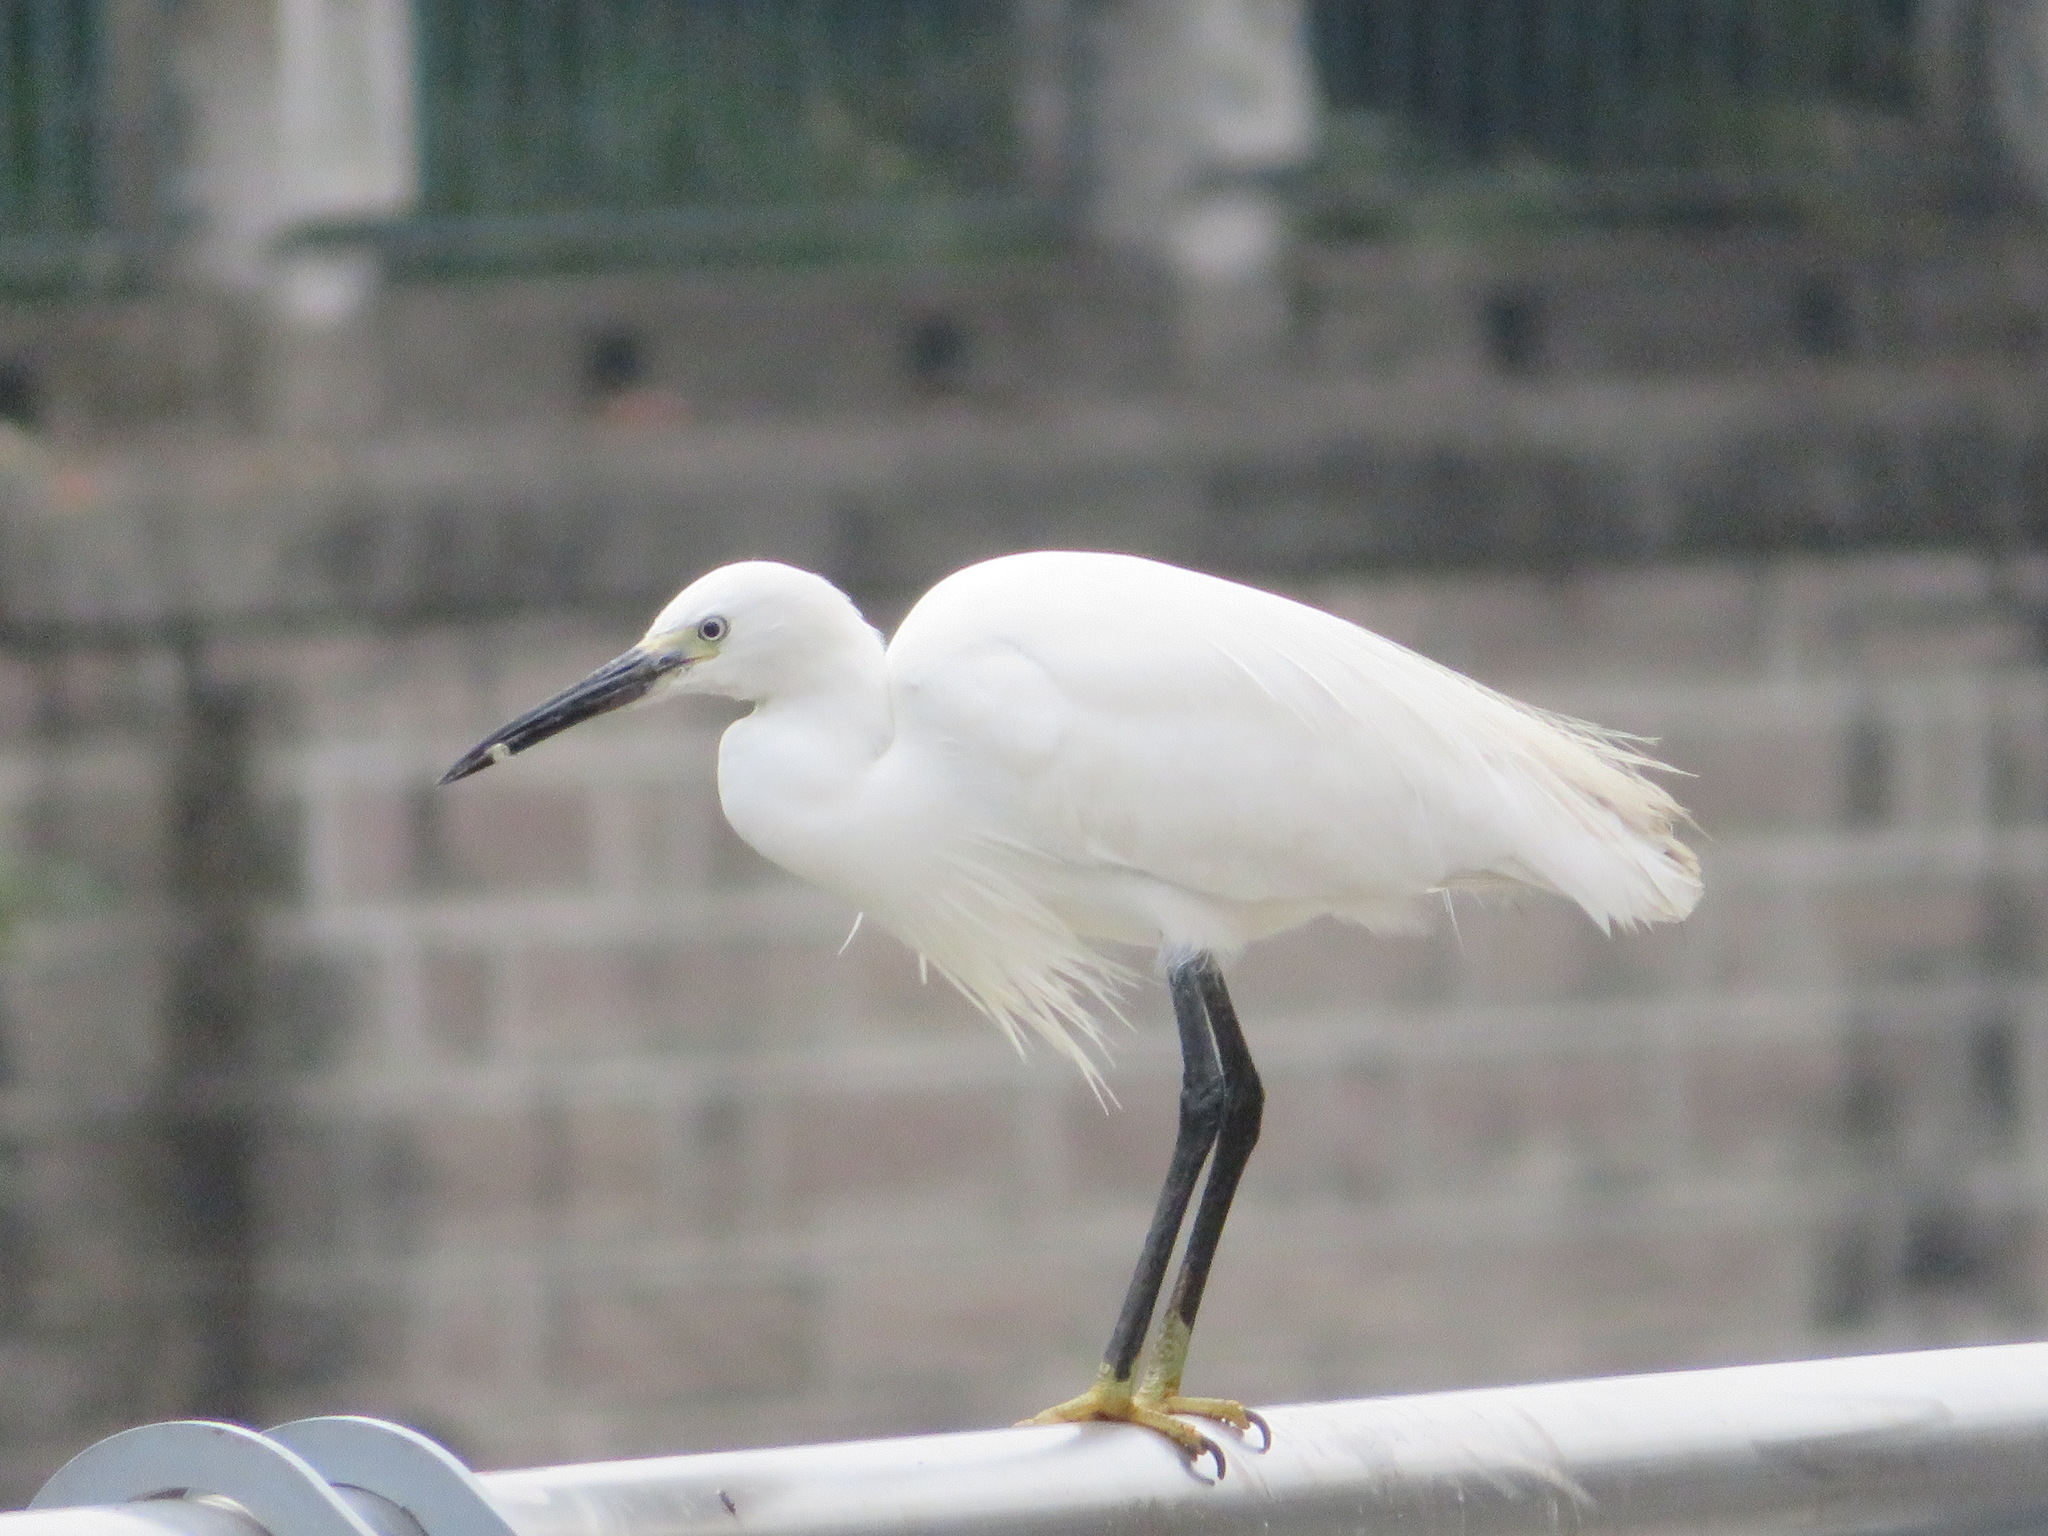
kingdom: Animalia
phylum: Chordata
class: Aves
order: Pelecaniformes
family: Ardeidae
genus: Egretta
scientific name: Egretta garzetta
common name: Little egret
